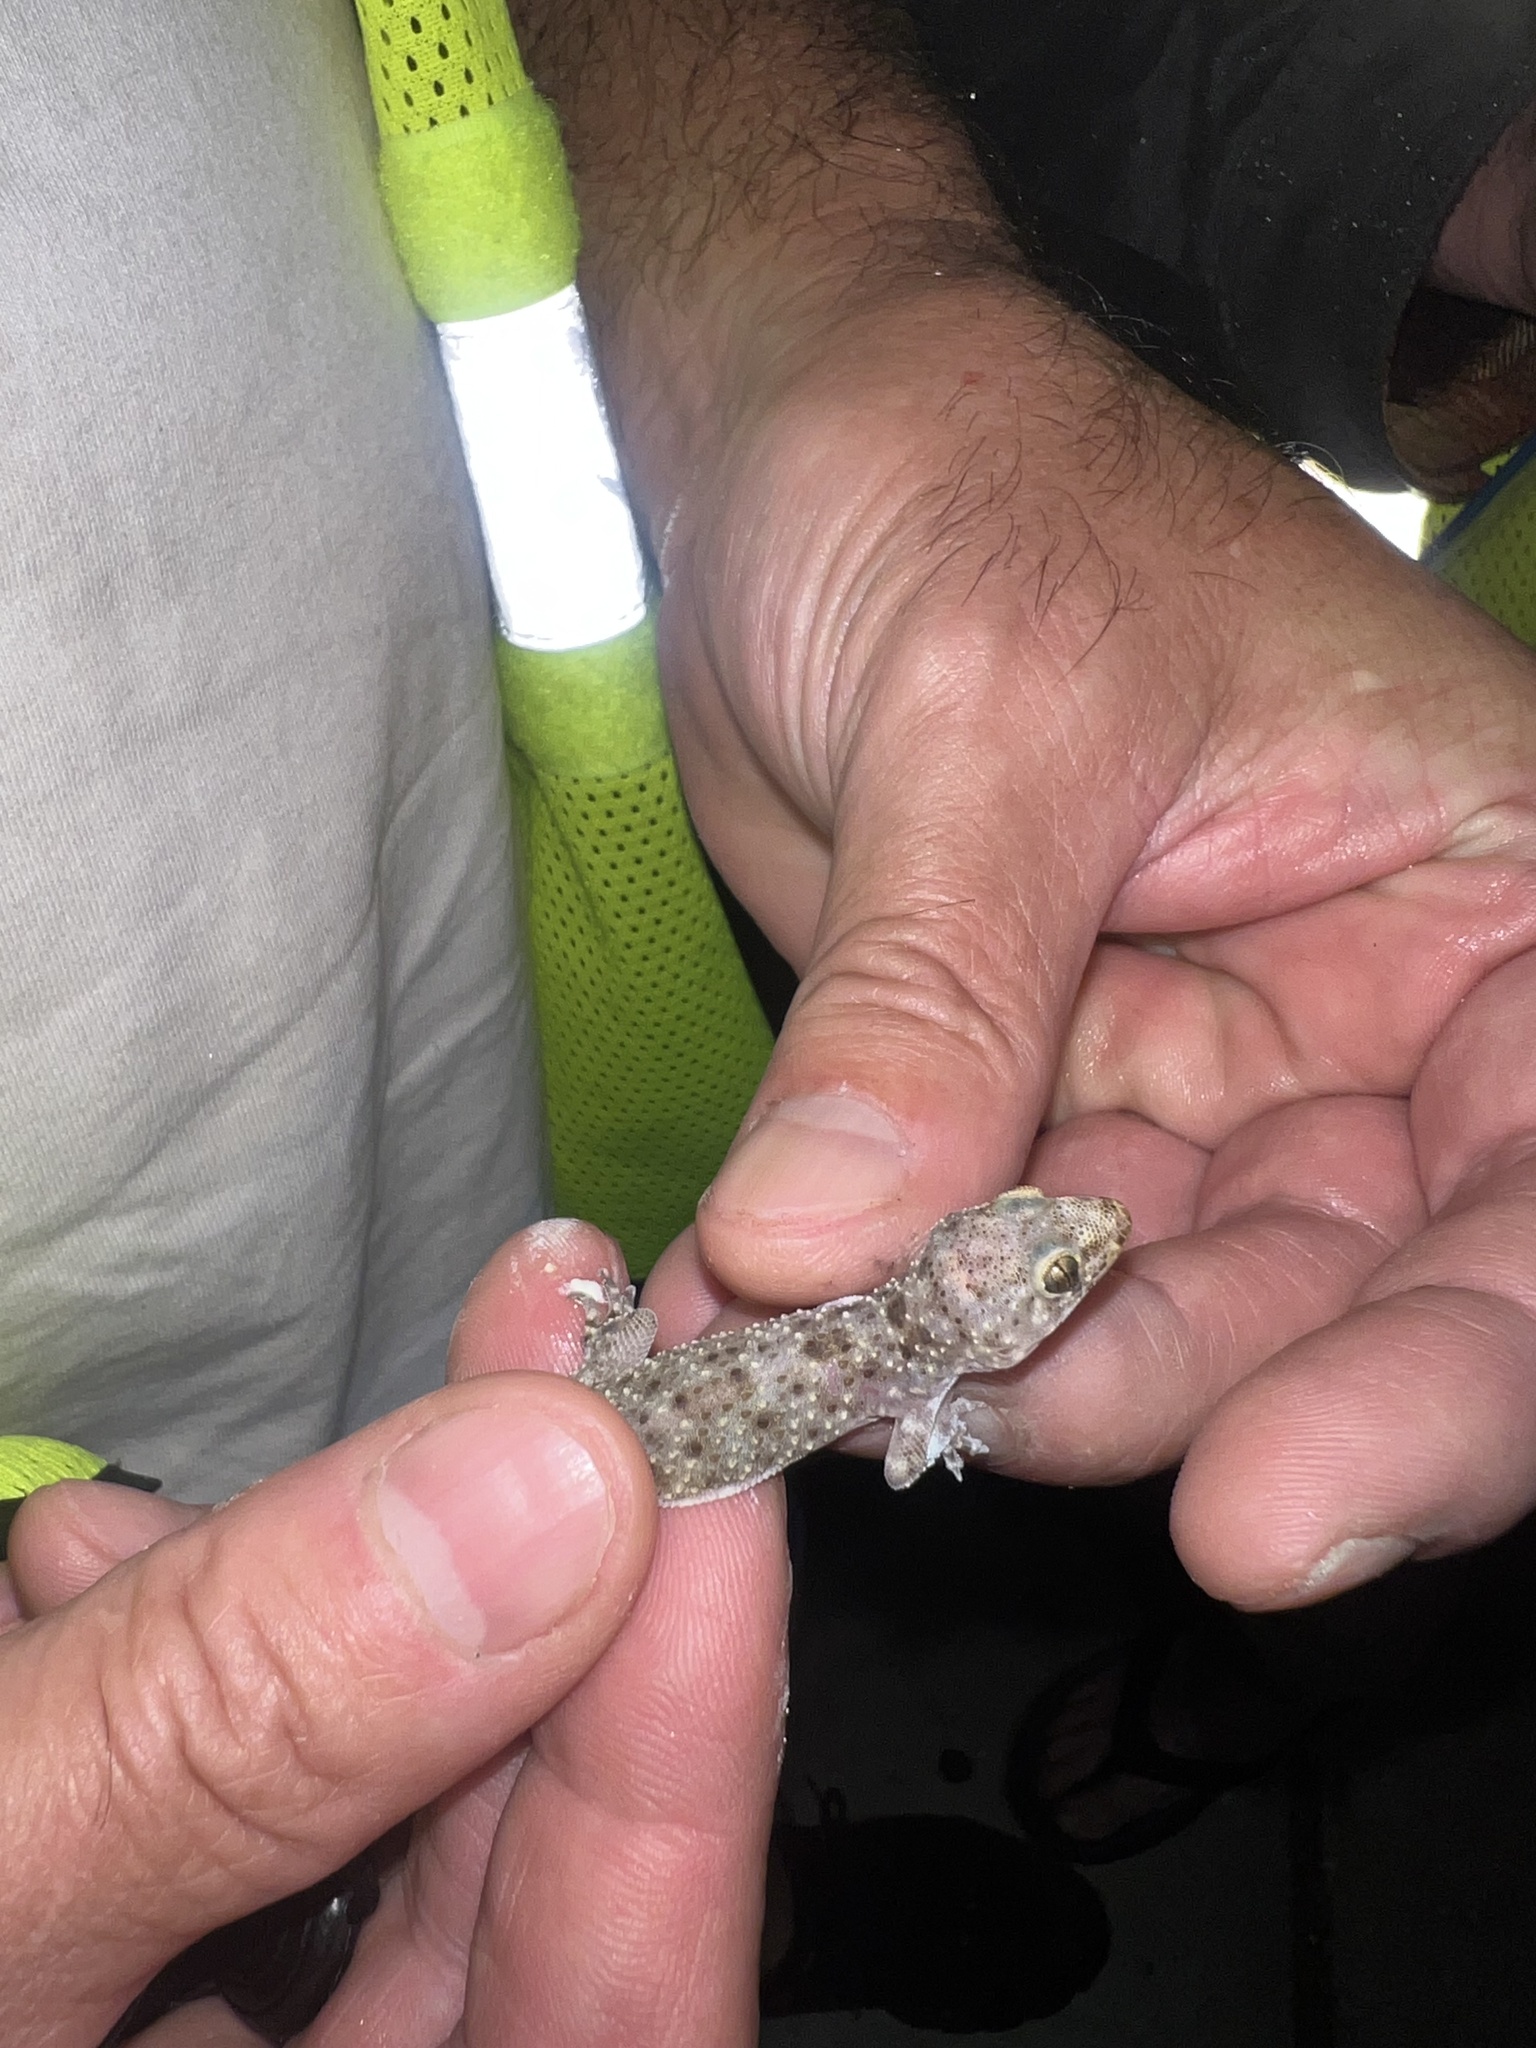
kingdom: Animalia
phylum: Chordata
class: Squamata
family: Gekkonidae
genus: Hemidactylus
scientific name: Hemidactylus turcicus
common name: Turkish gecko
